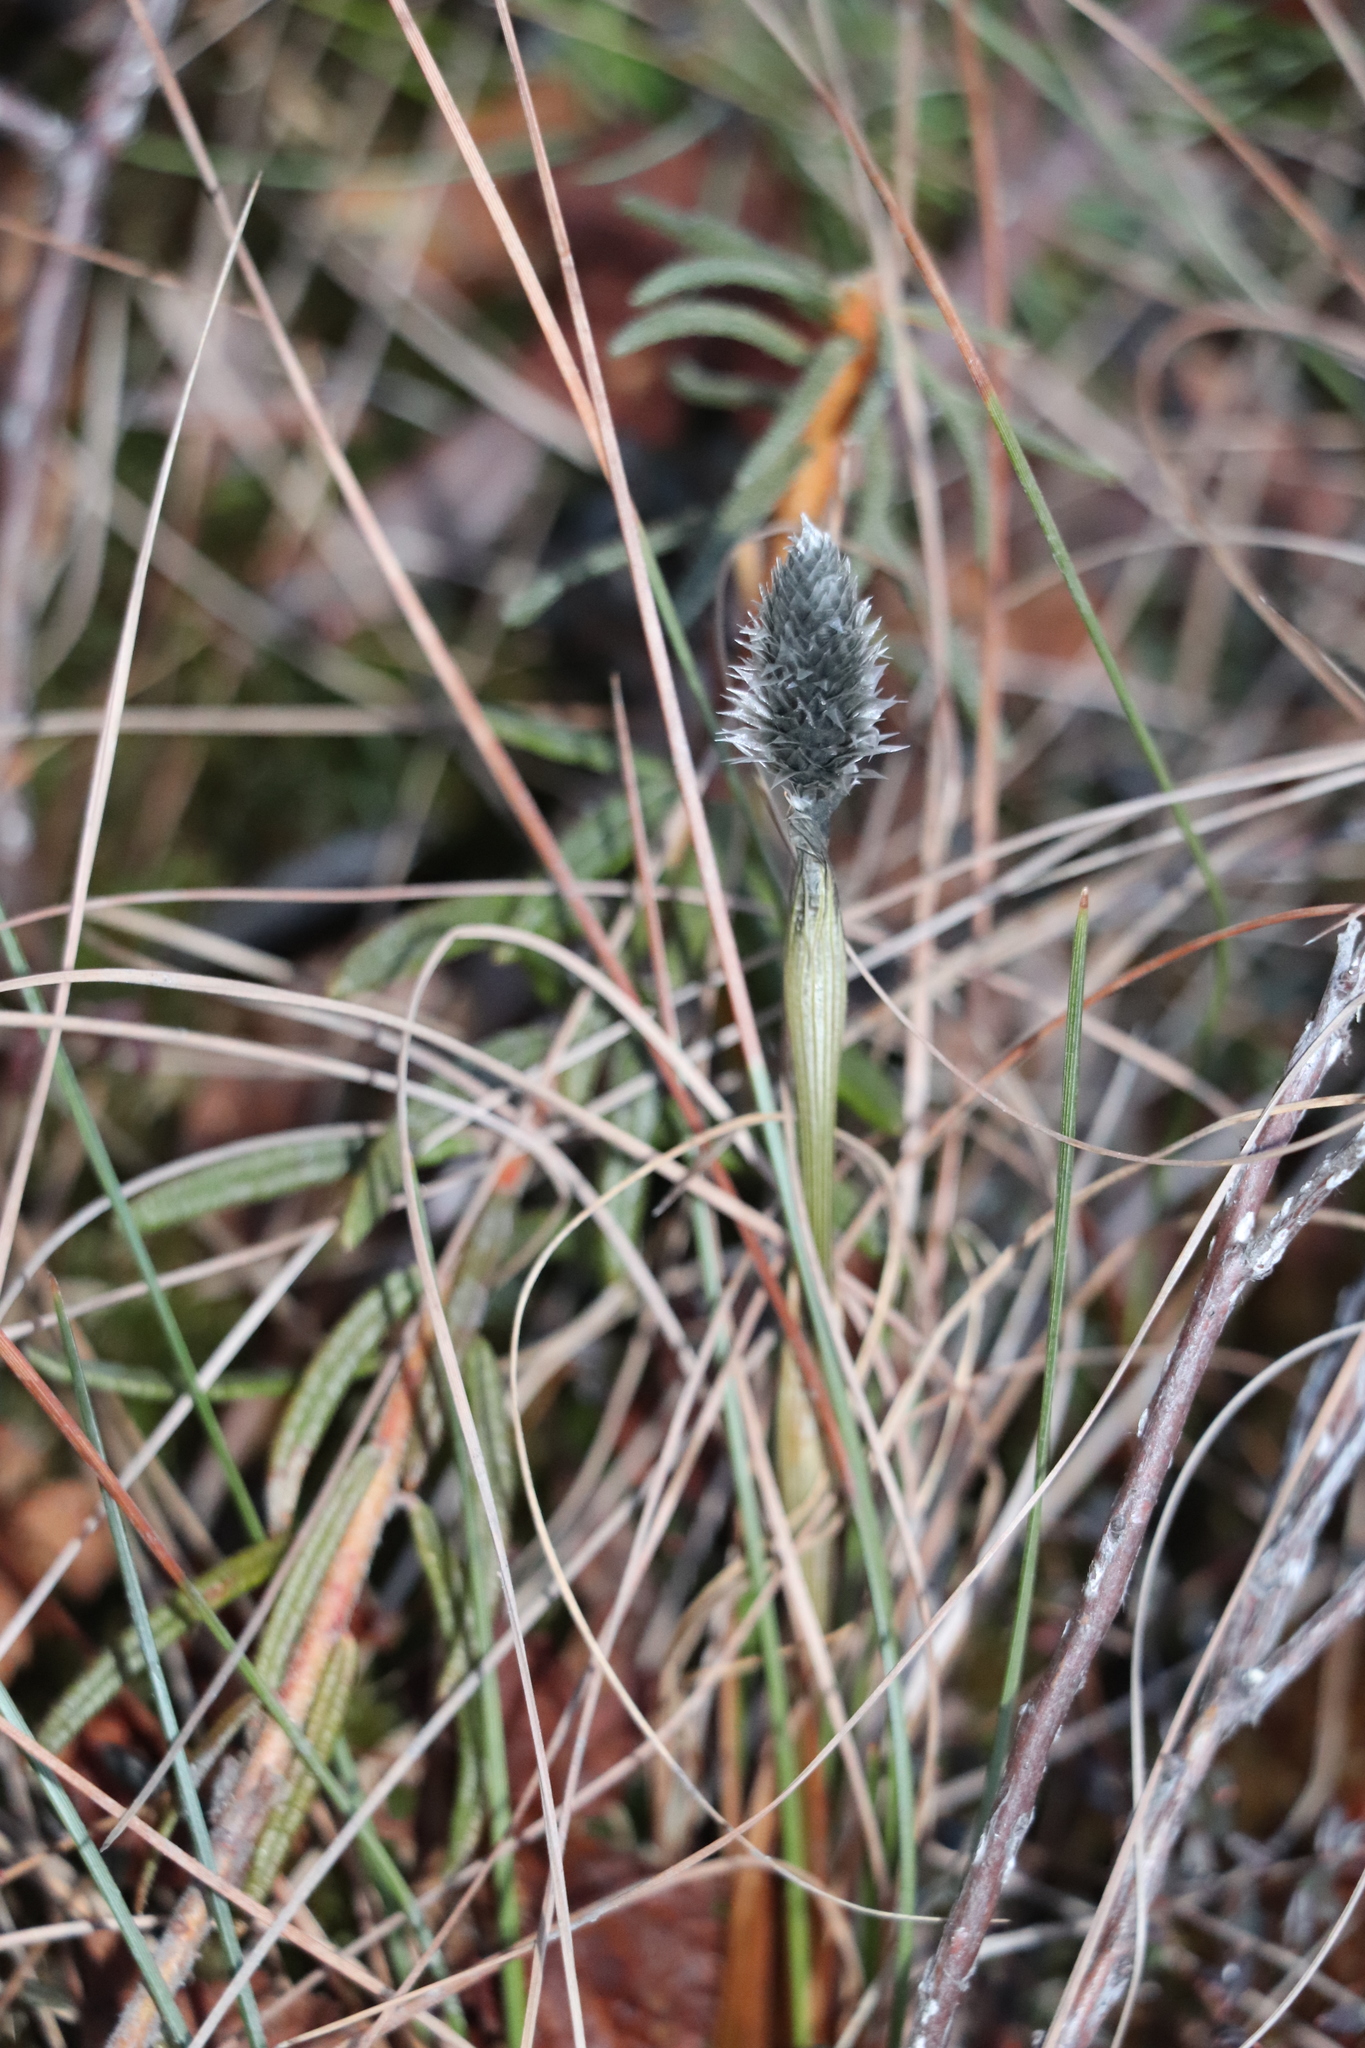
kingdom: Plantae
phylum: Tracheophyta
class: Liliopsida
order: Poales
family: Cyperaceae
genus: Eriophorum
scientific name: Eriophorum vaginatum
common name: Hare's-tail cottongrass
